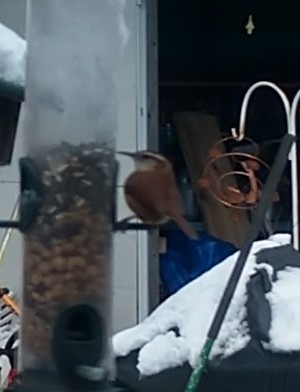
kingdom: Animalia
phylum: Chordata
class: Aves
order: Passeriformes
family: Troglodytidae
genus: Thryothorus
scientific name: Thryothorus ludovicianus
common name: Carolina wren
